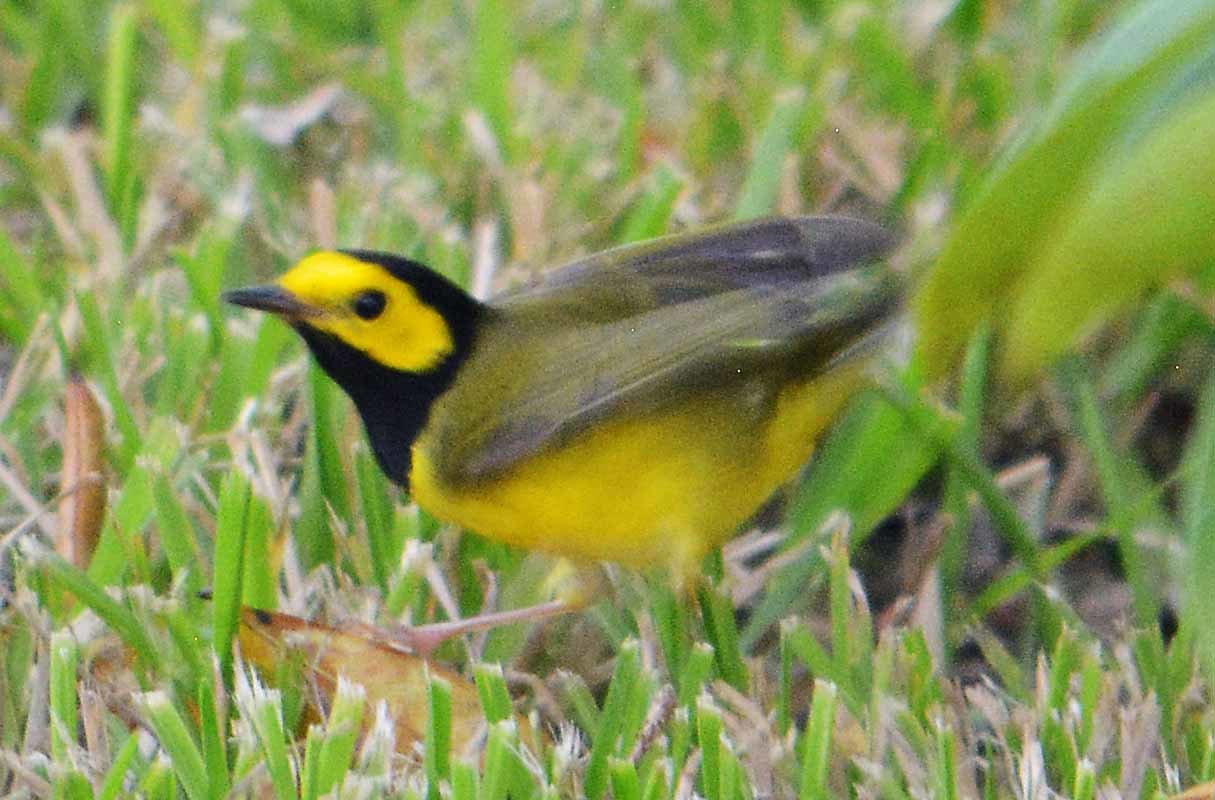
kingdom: Animalia
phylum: Chordata
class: Aves
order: Passeriformes
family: Parulidae
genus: Setophaga
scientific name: Setophaga citrina
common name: Hooded warbler
